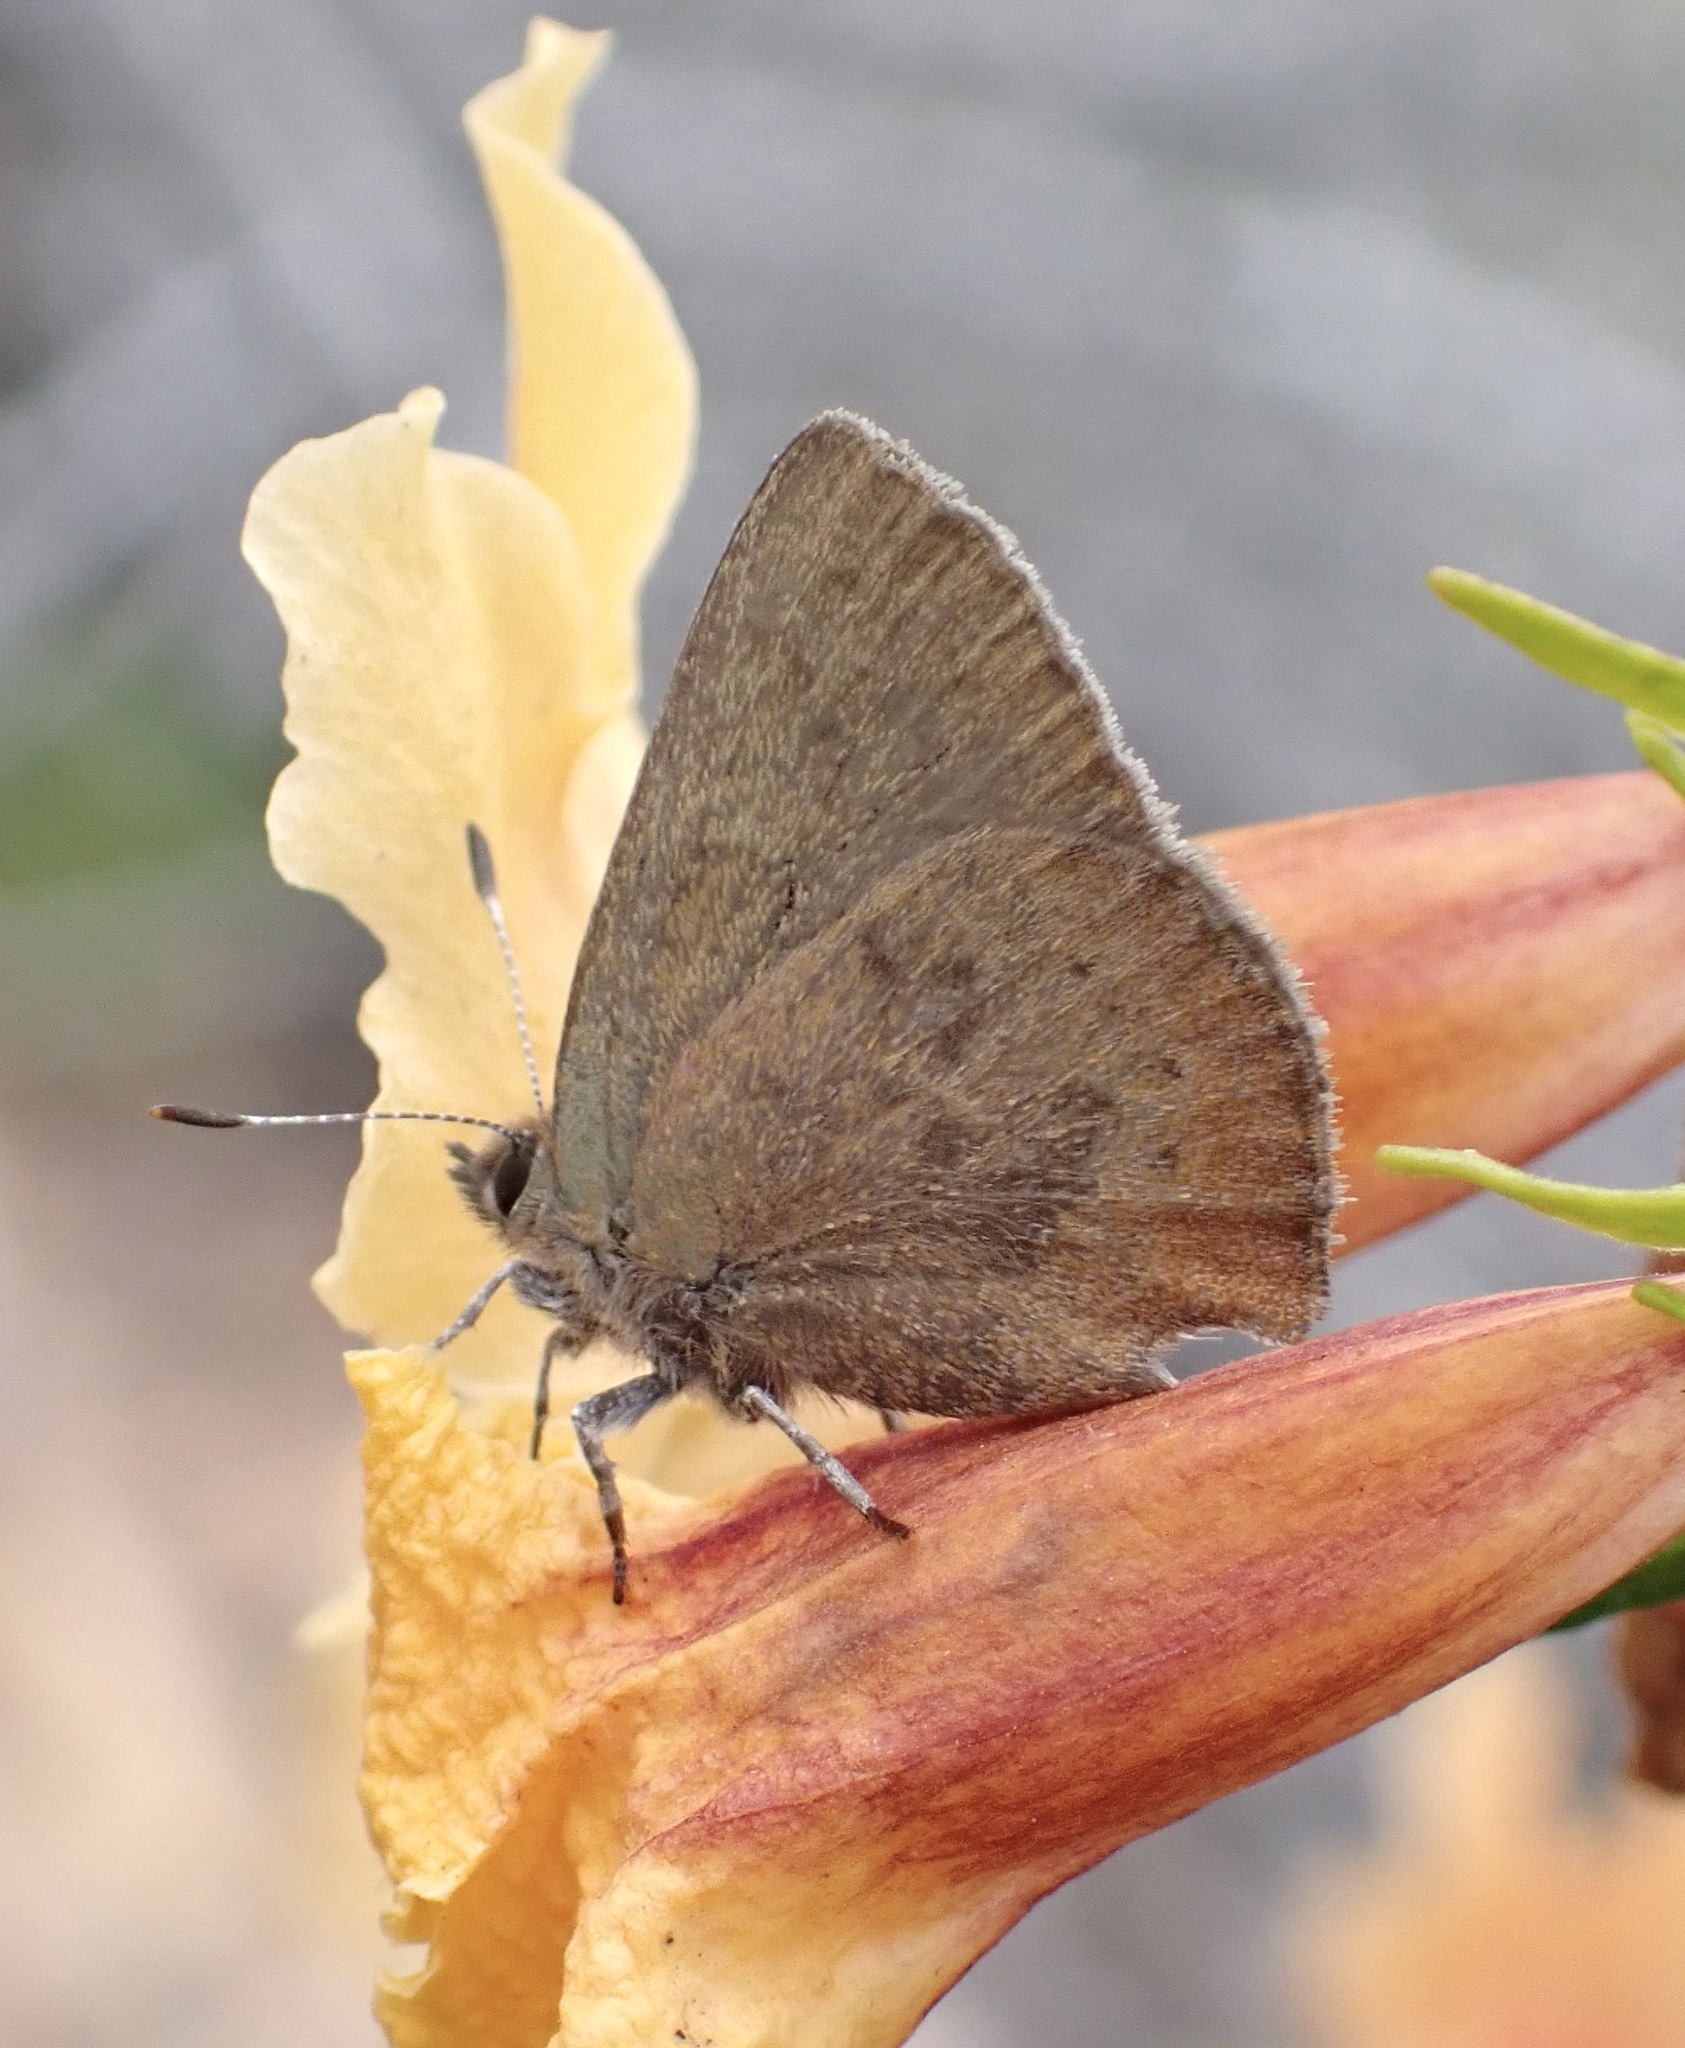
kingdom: Animalia
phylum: Arthropoda
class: Insecta
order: Lepidoptera
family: Lycaenidae
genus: Incisalia
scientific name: Incisalia irioides
